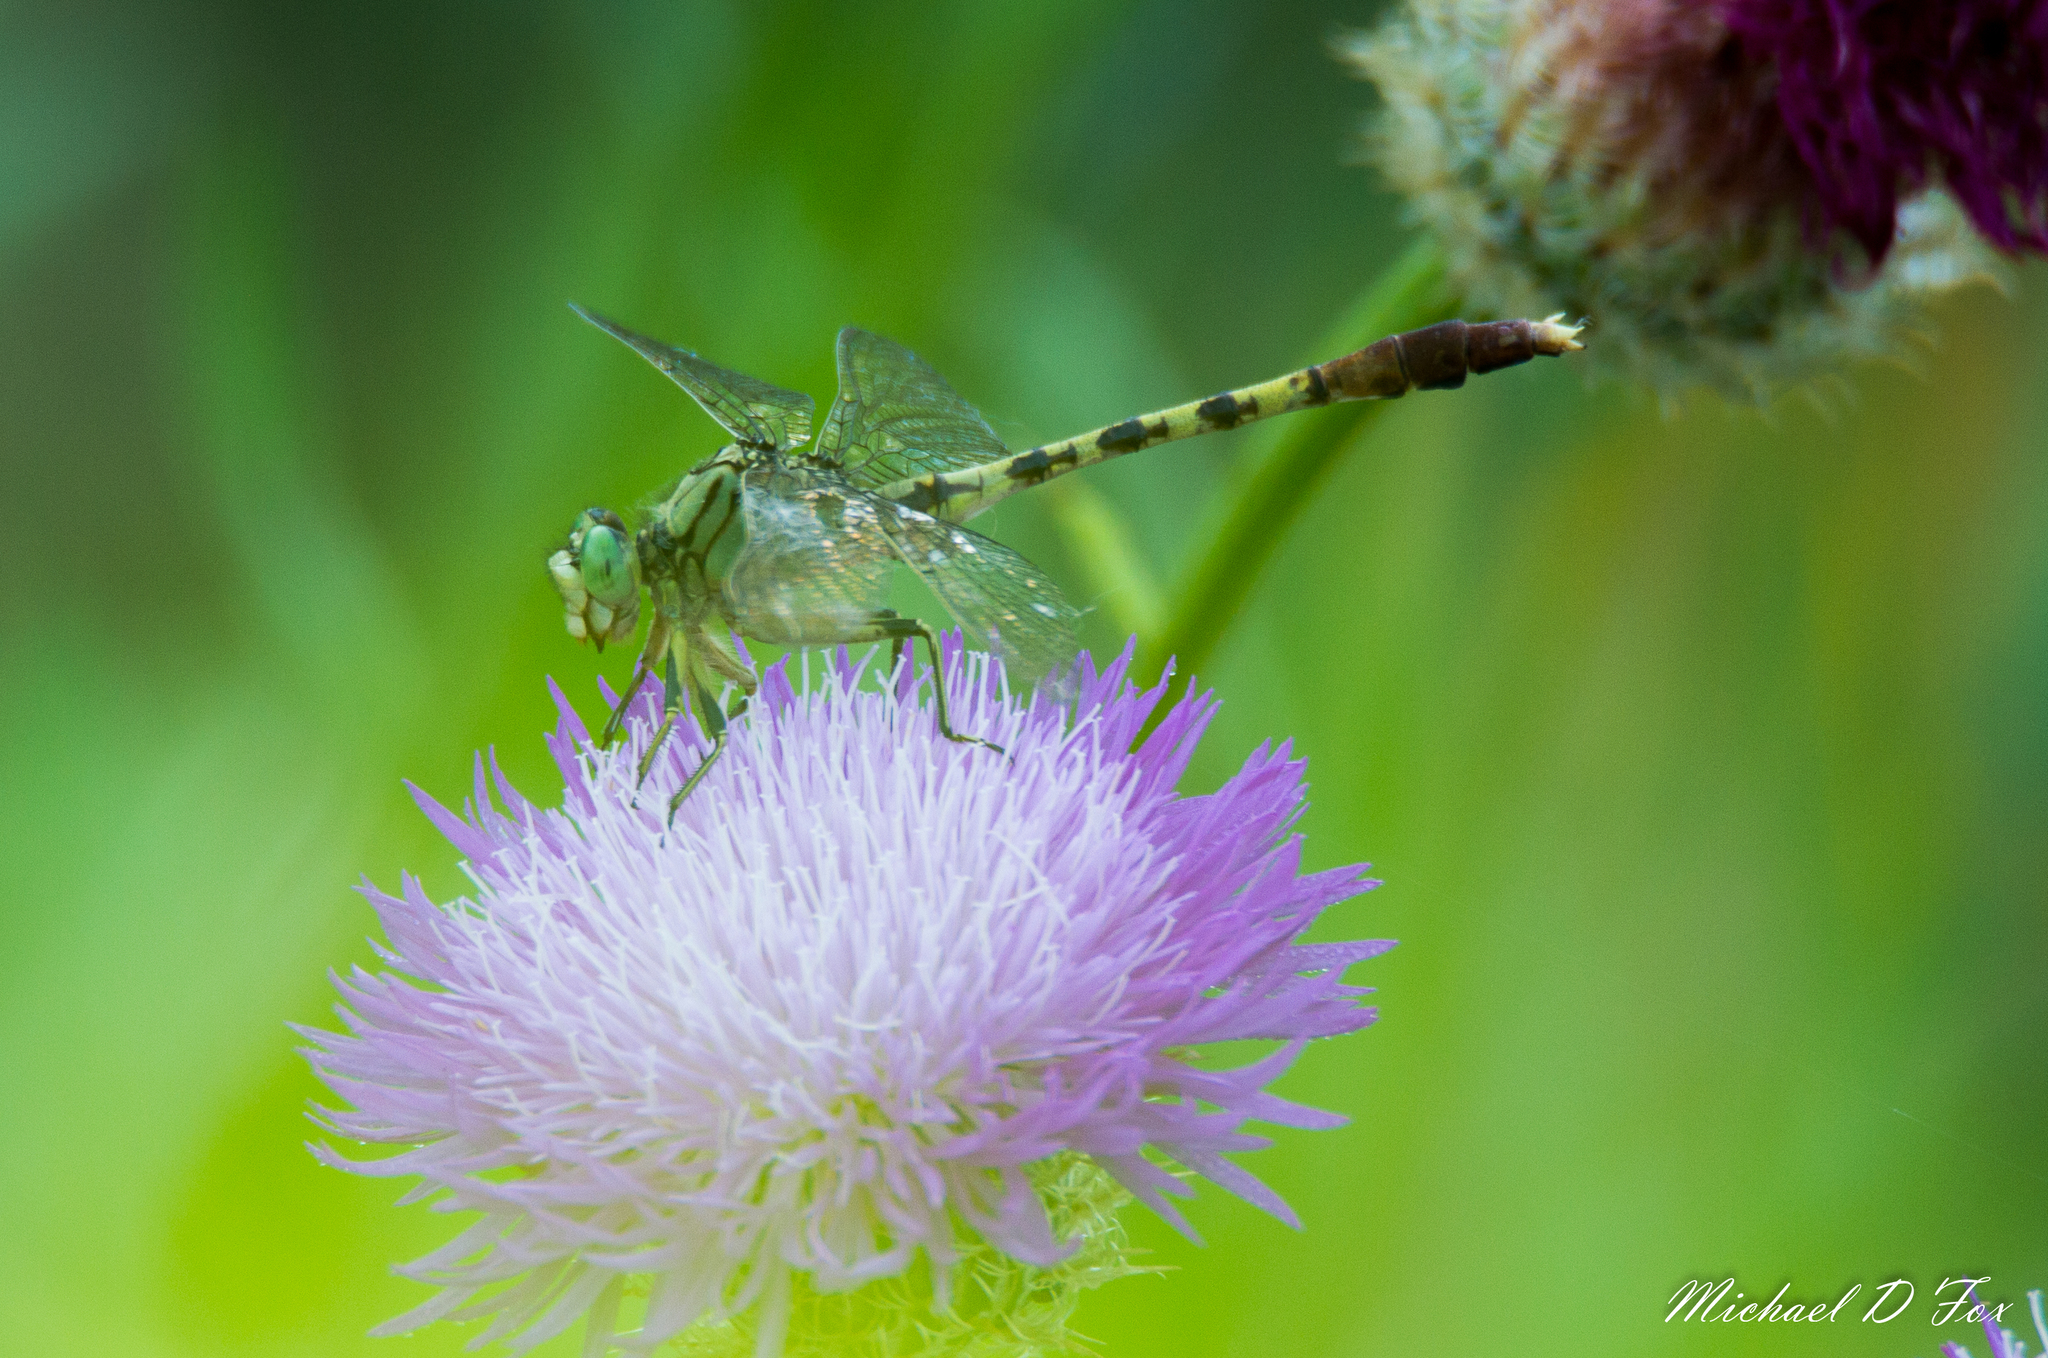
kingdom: Animalia
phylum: Arthropoda
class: Insecta
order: Odonata
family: Gomphidae
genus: Arigomphus
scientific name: Arigomphus submedianus
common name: Jade clubtail
